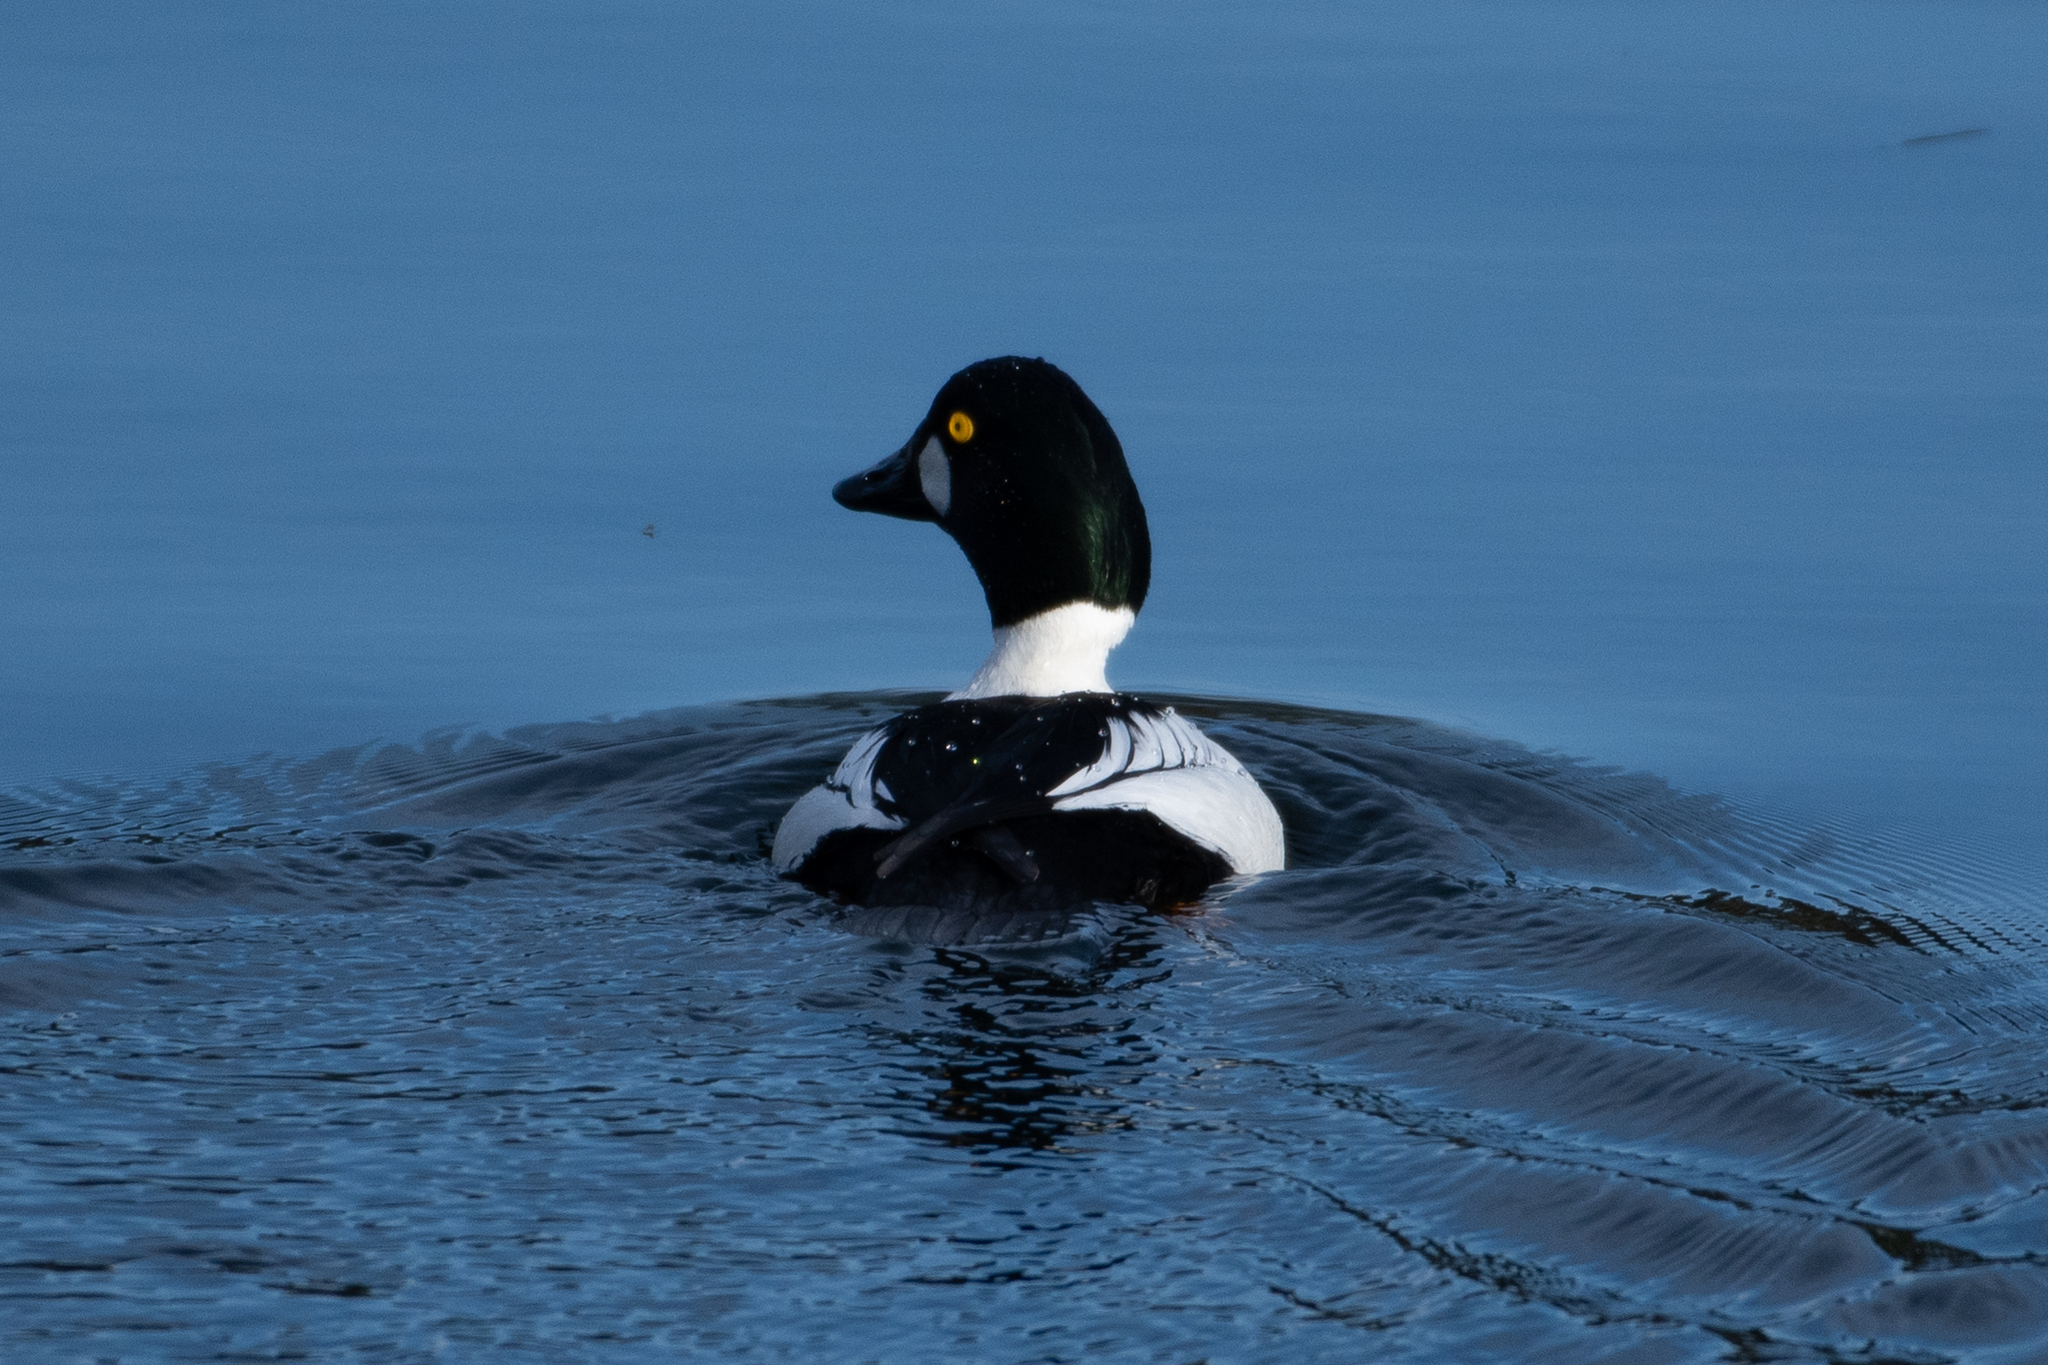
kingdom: Animalia
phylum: Chordata
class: Aves
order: Anseriformes
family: Anatidae
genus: Bucephala
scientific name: Bucephala clangula
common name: Common goldeneye
